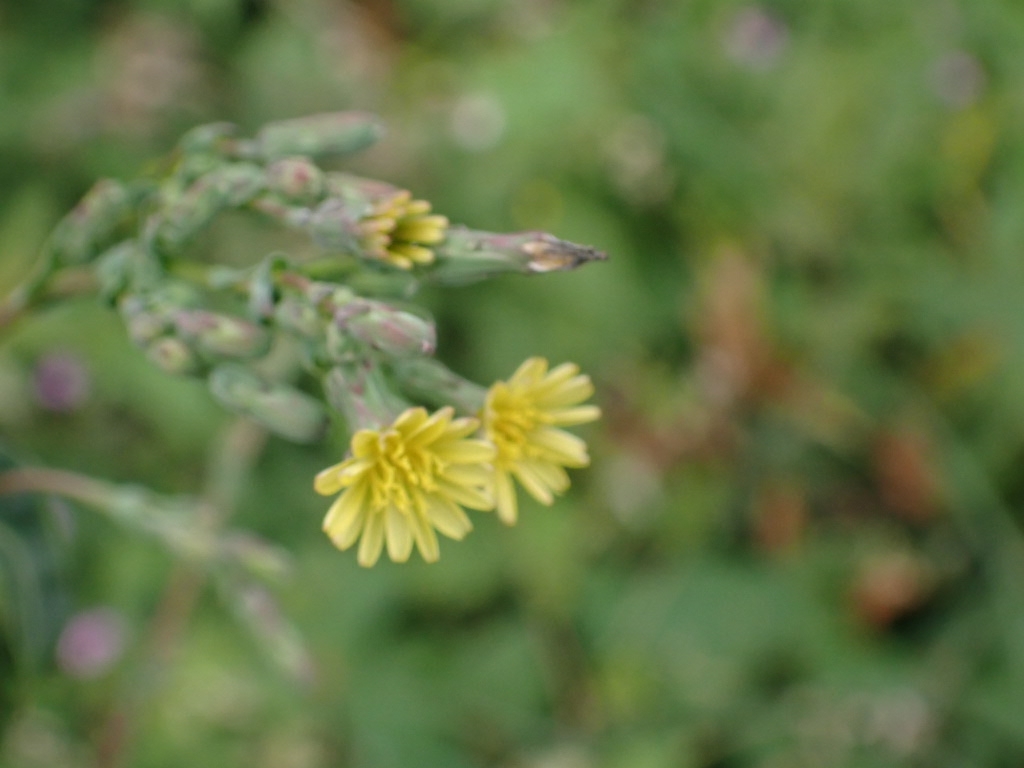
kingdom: Plantae
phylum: Tracheophyta
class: Magnoliopsida
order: Asterales
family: Asteraceae
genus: Lactuca
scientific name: Lactuca serriola
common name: Prickly lettuce
